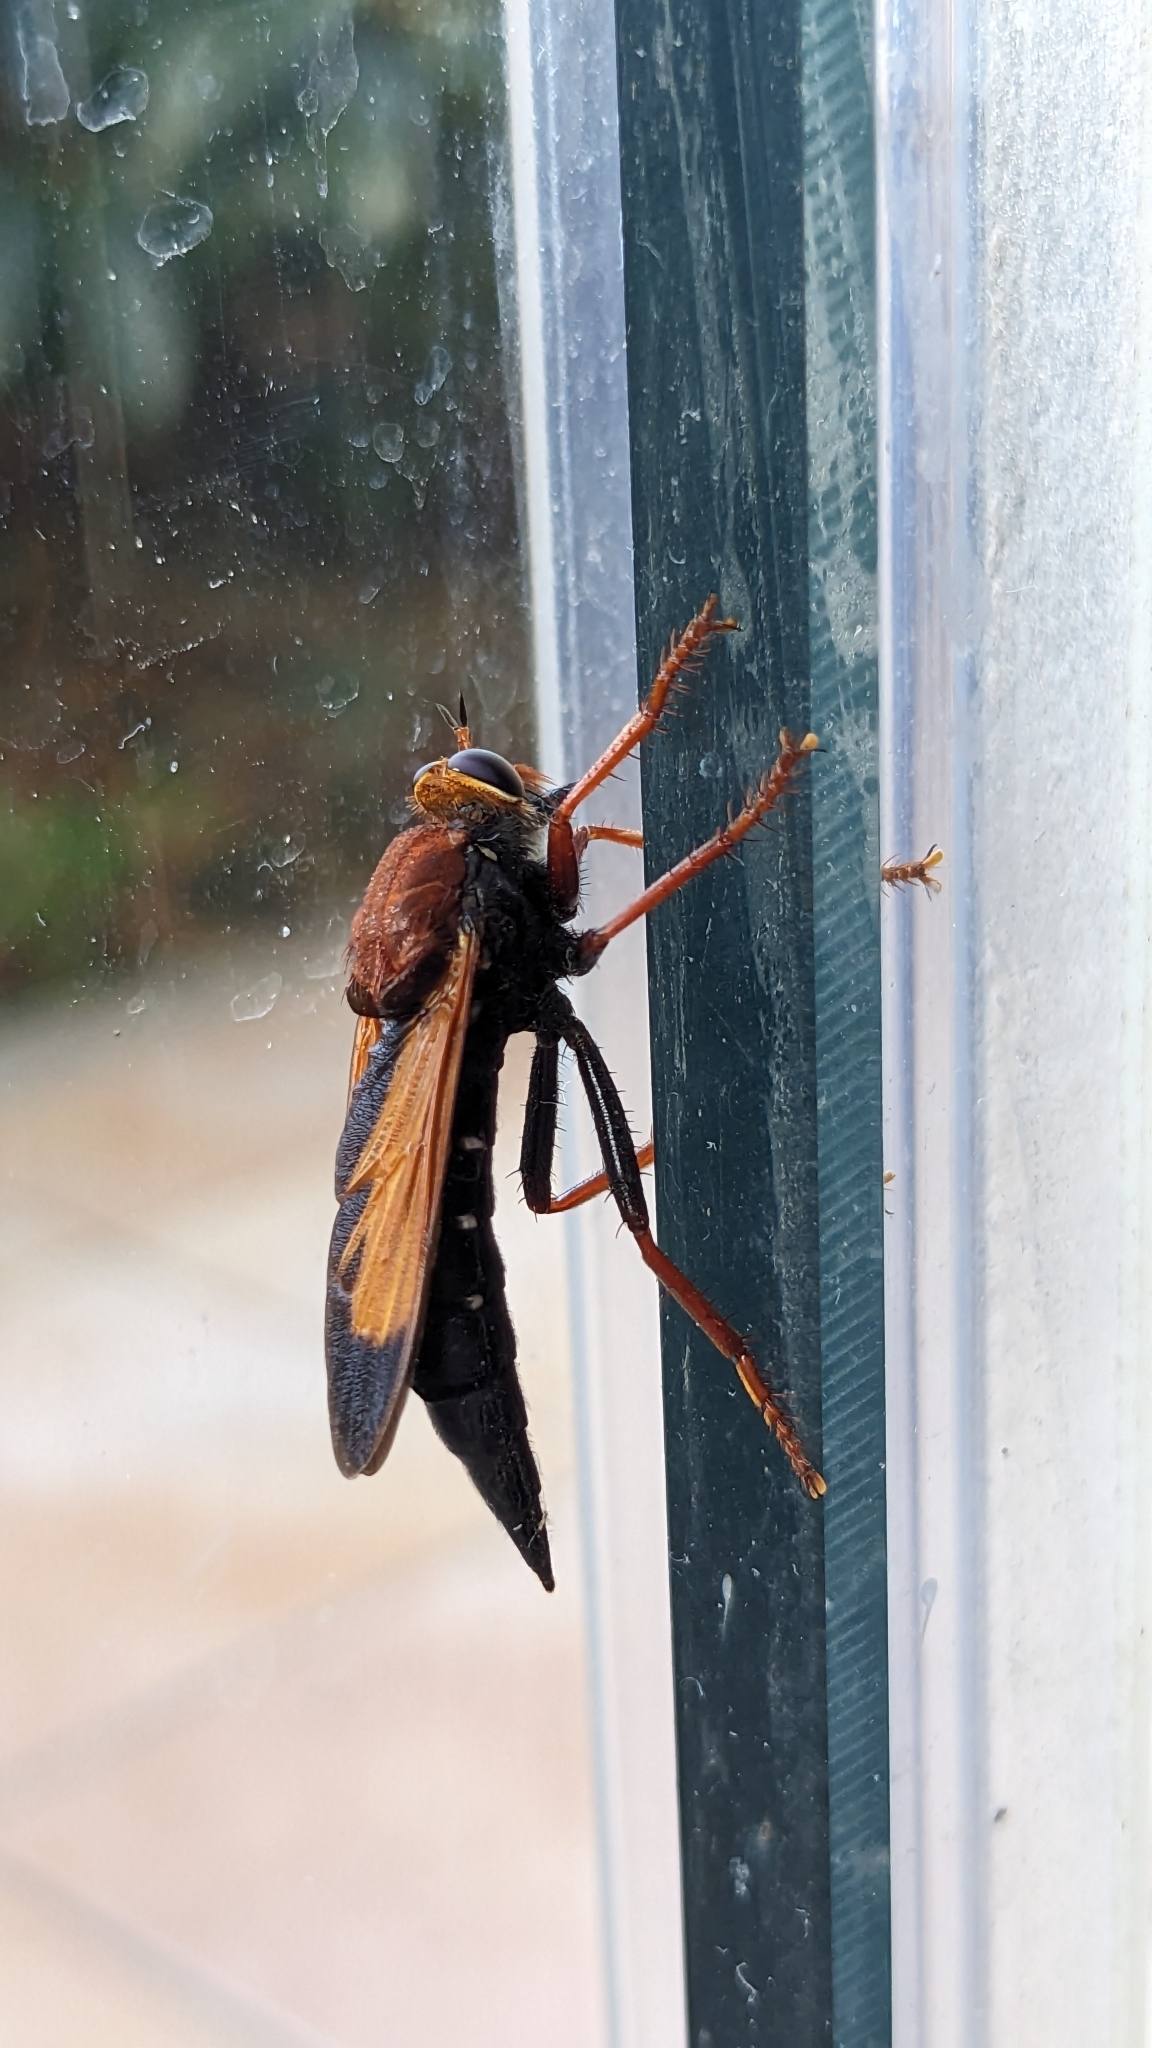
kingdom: Animalia
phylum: Arthropoda
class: Insecta
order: Diptera
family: Asilidae
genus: Asilus
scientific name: Asilus barbarus
